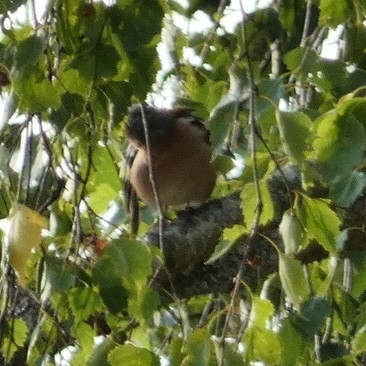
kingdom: Animalia
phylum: Chordata
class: Aves
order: Passeriformes
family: Fringillidae
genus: Fringilla
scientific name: Fringilla coelebs
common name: Common chaffinch
